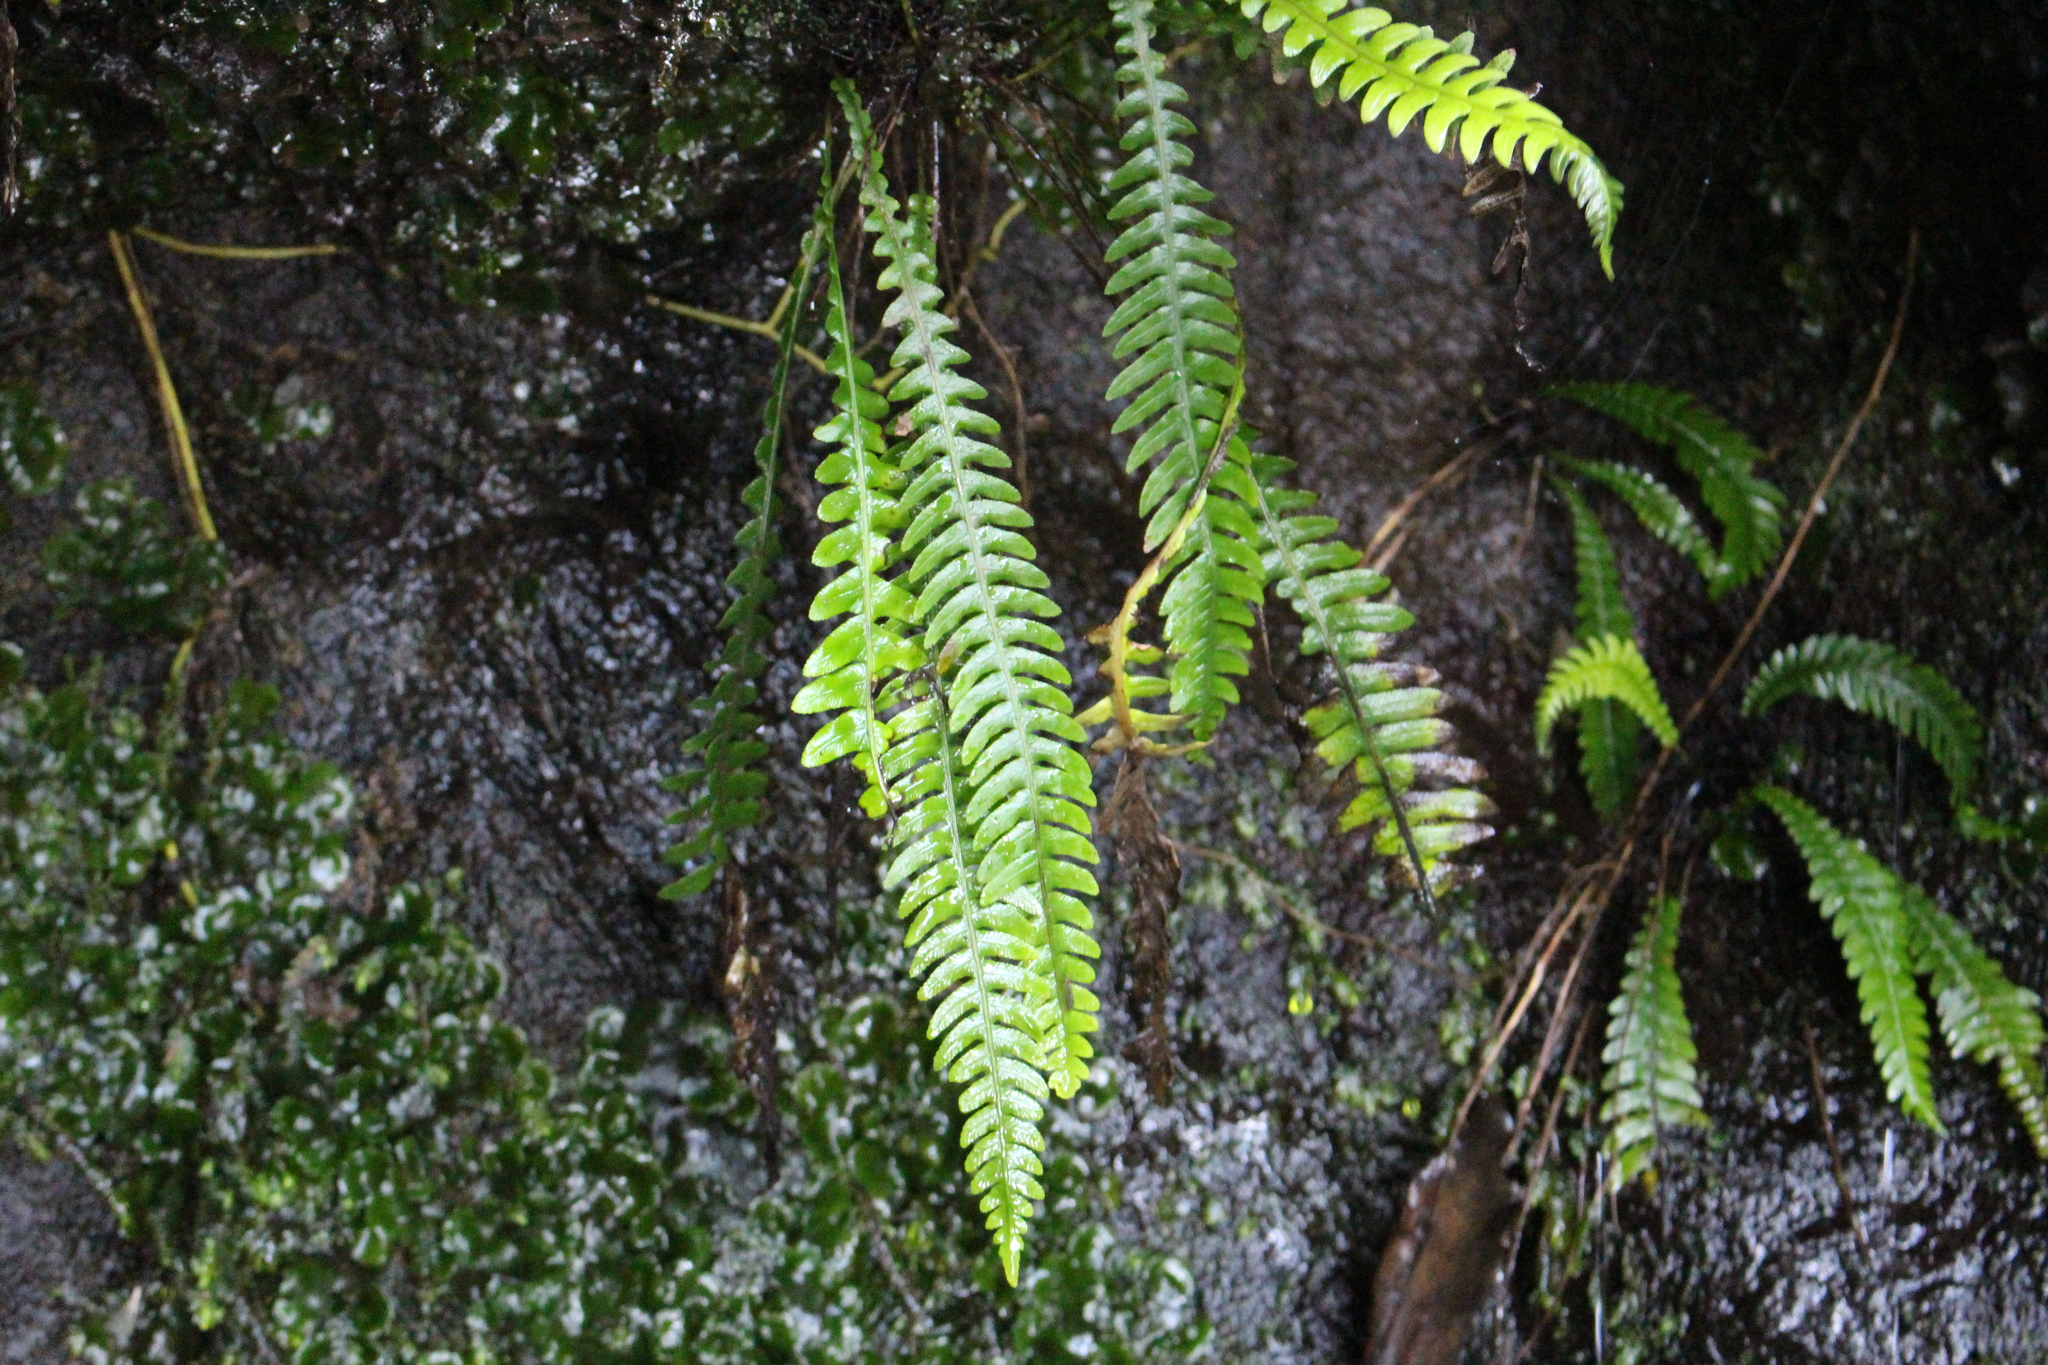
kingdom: Plantae
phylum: Tracheophyta
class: Polypodiopsida
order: Polypodiales
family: Blechnaceae
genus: Austroblechnum
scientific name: Austroblechnum lanceolatum
